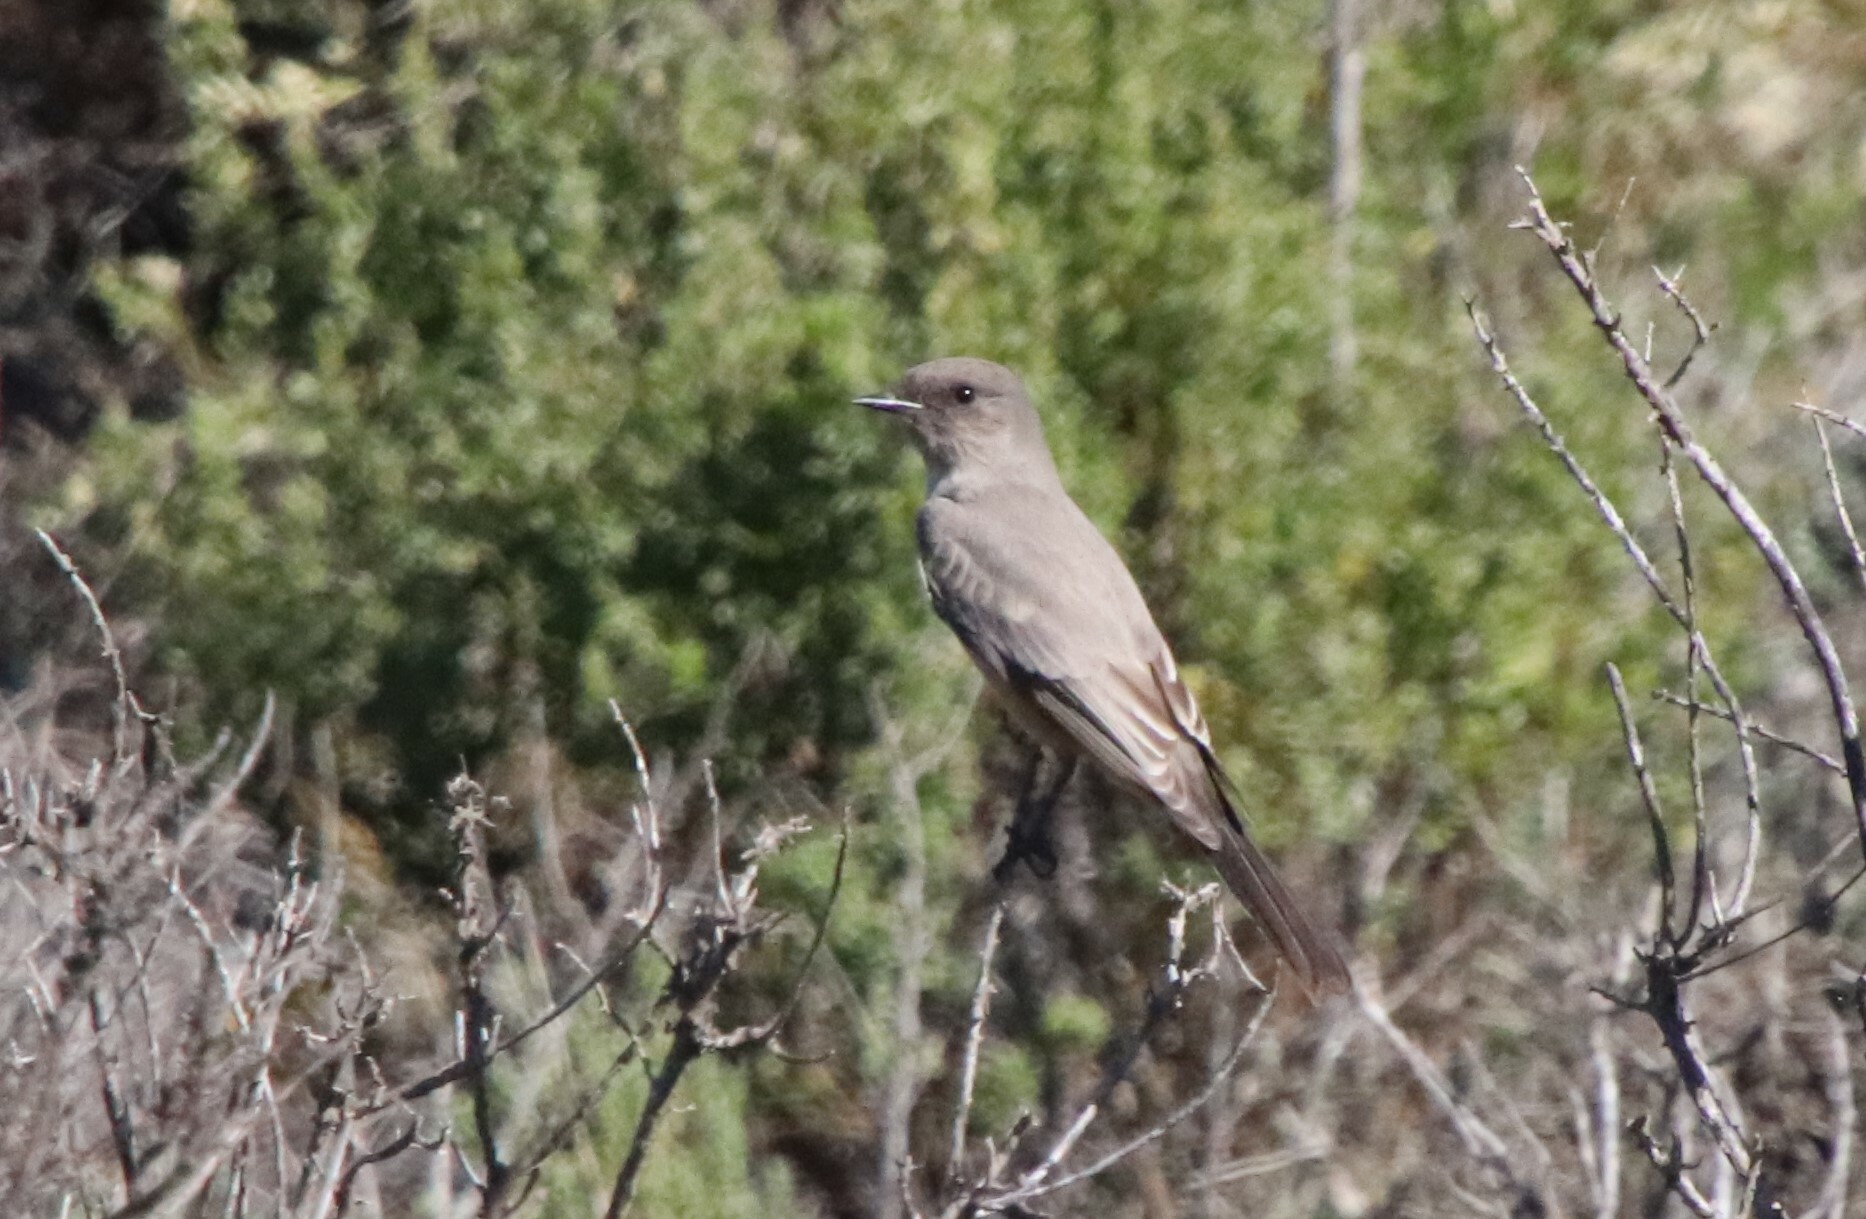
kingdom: Animalia
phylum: Chordata
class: Aves
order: Passeriformes
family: Tyrannidae
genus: Sayornis
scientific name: Sayornis saya
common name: Say's phoebe
